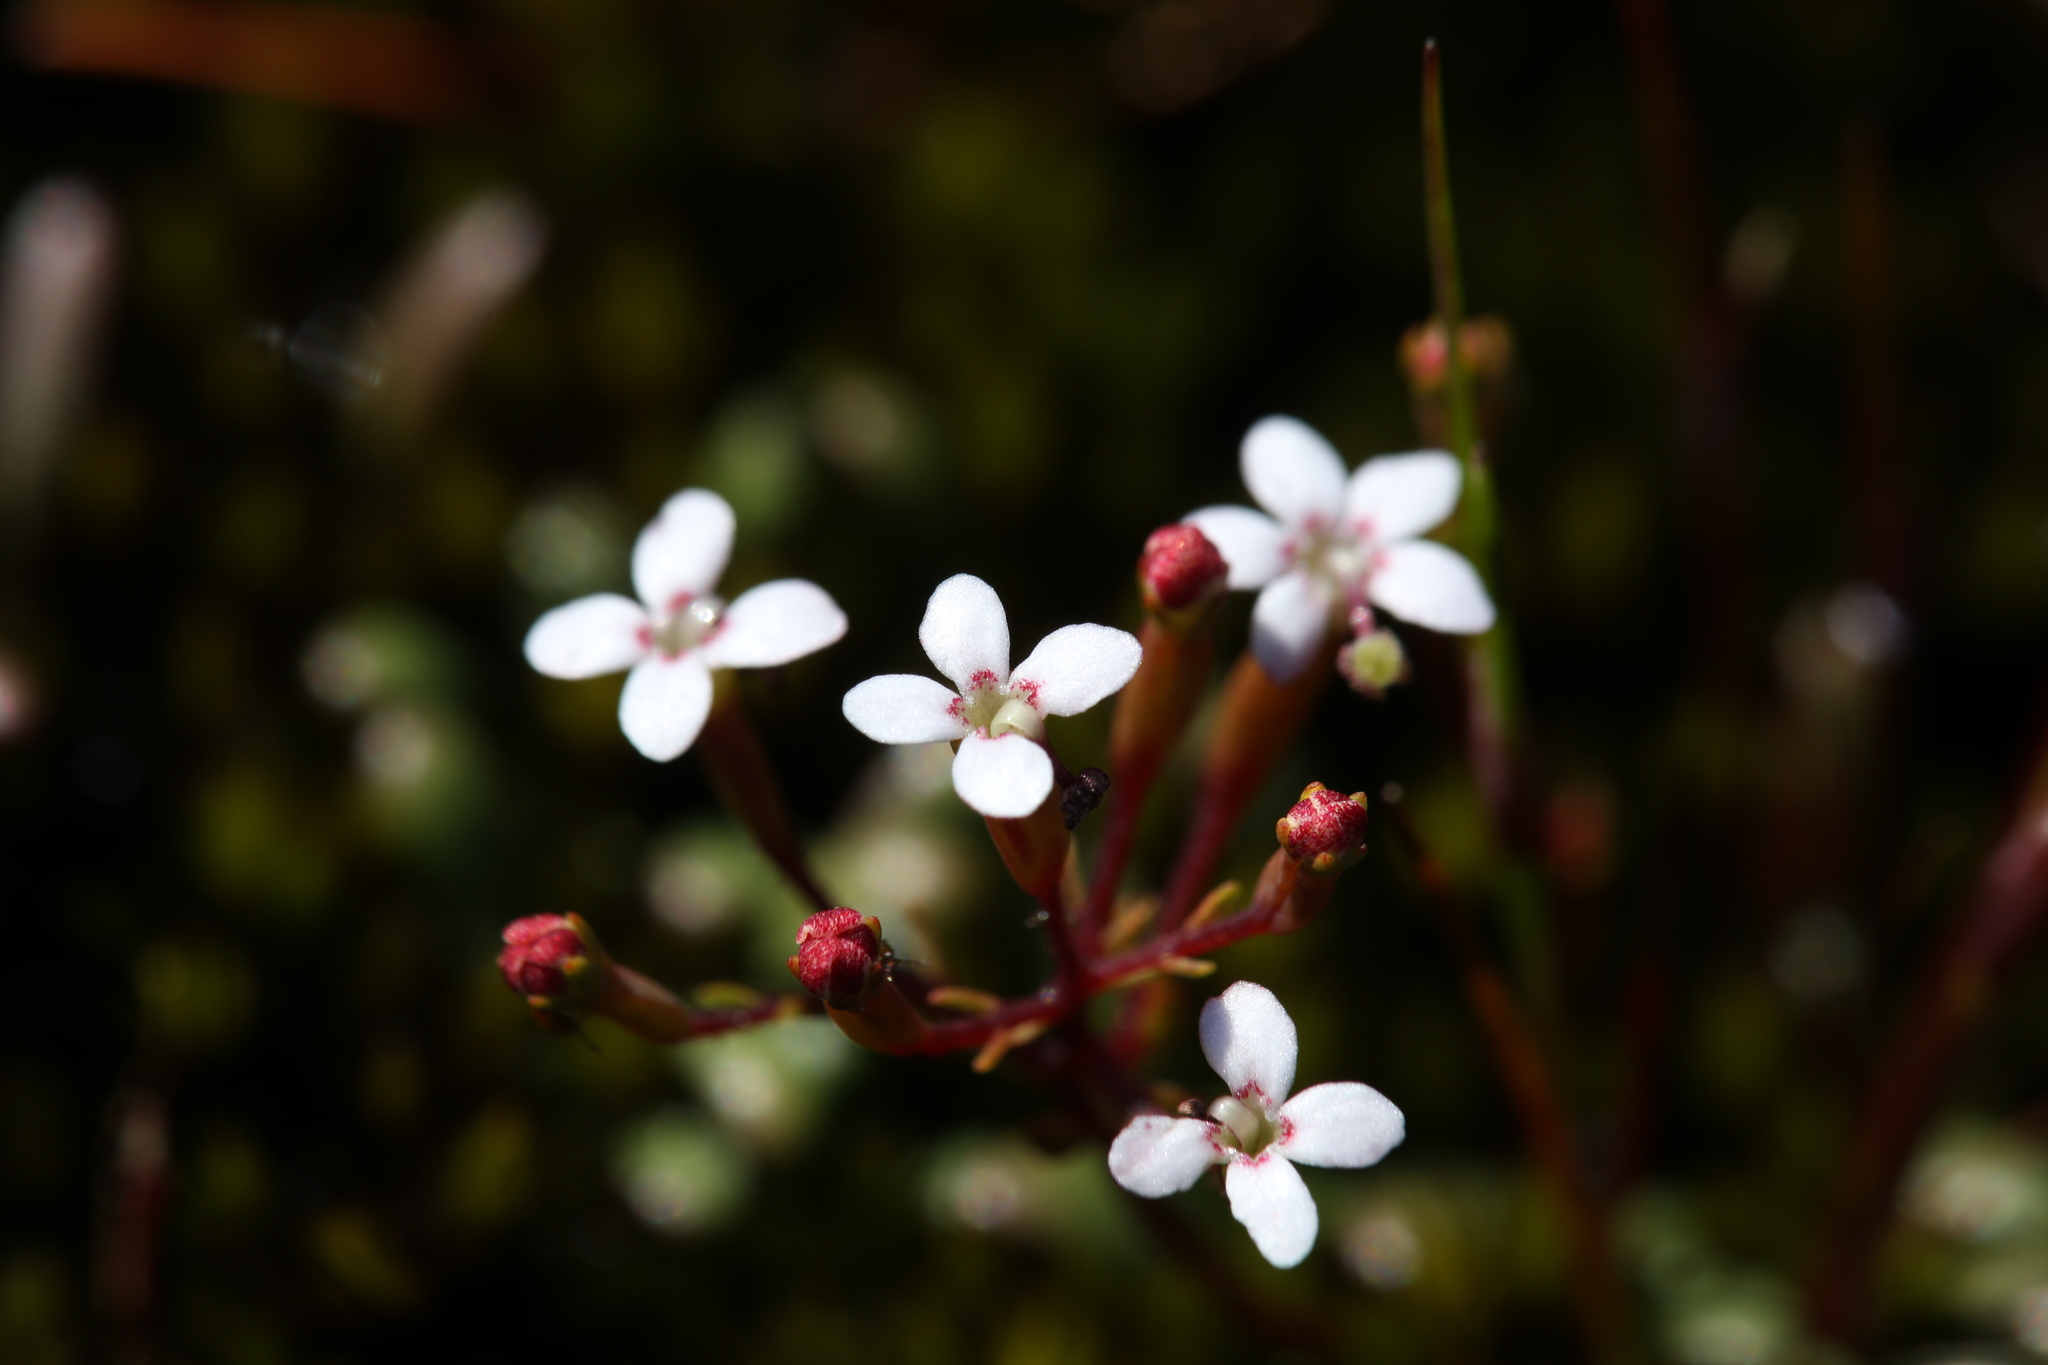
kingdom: Plantae
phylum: Tracheophyta
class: Magnoliopsida
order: Asterales
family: Stylidiaceae
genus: Stylidium
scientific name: Stylidium pulchellum
